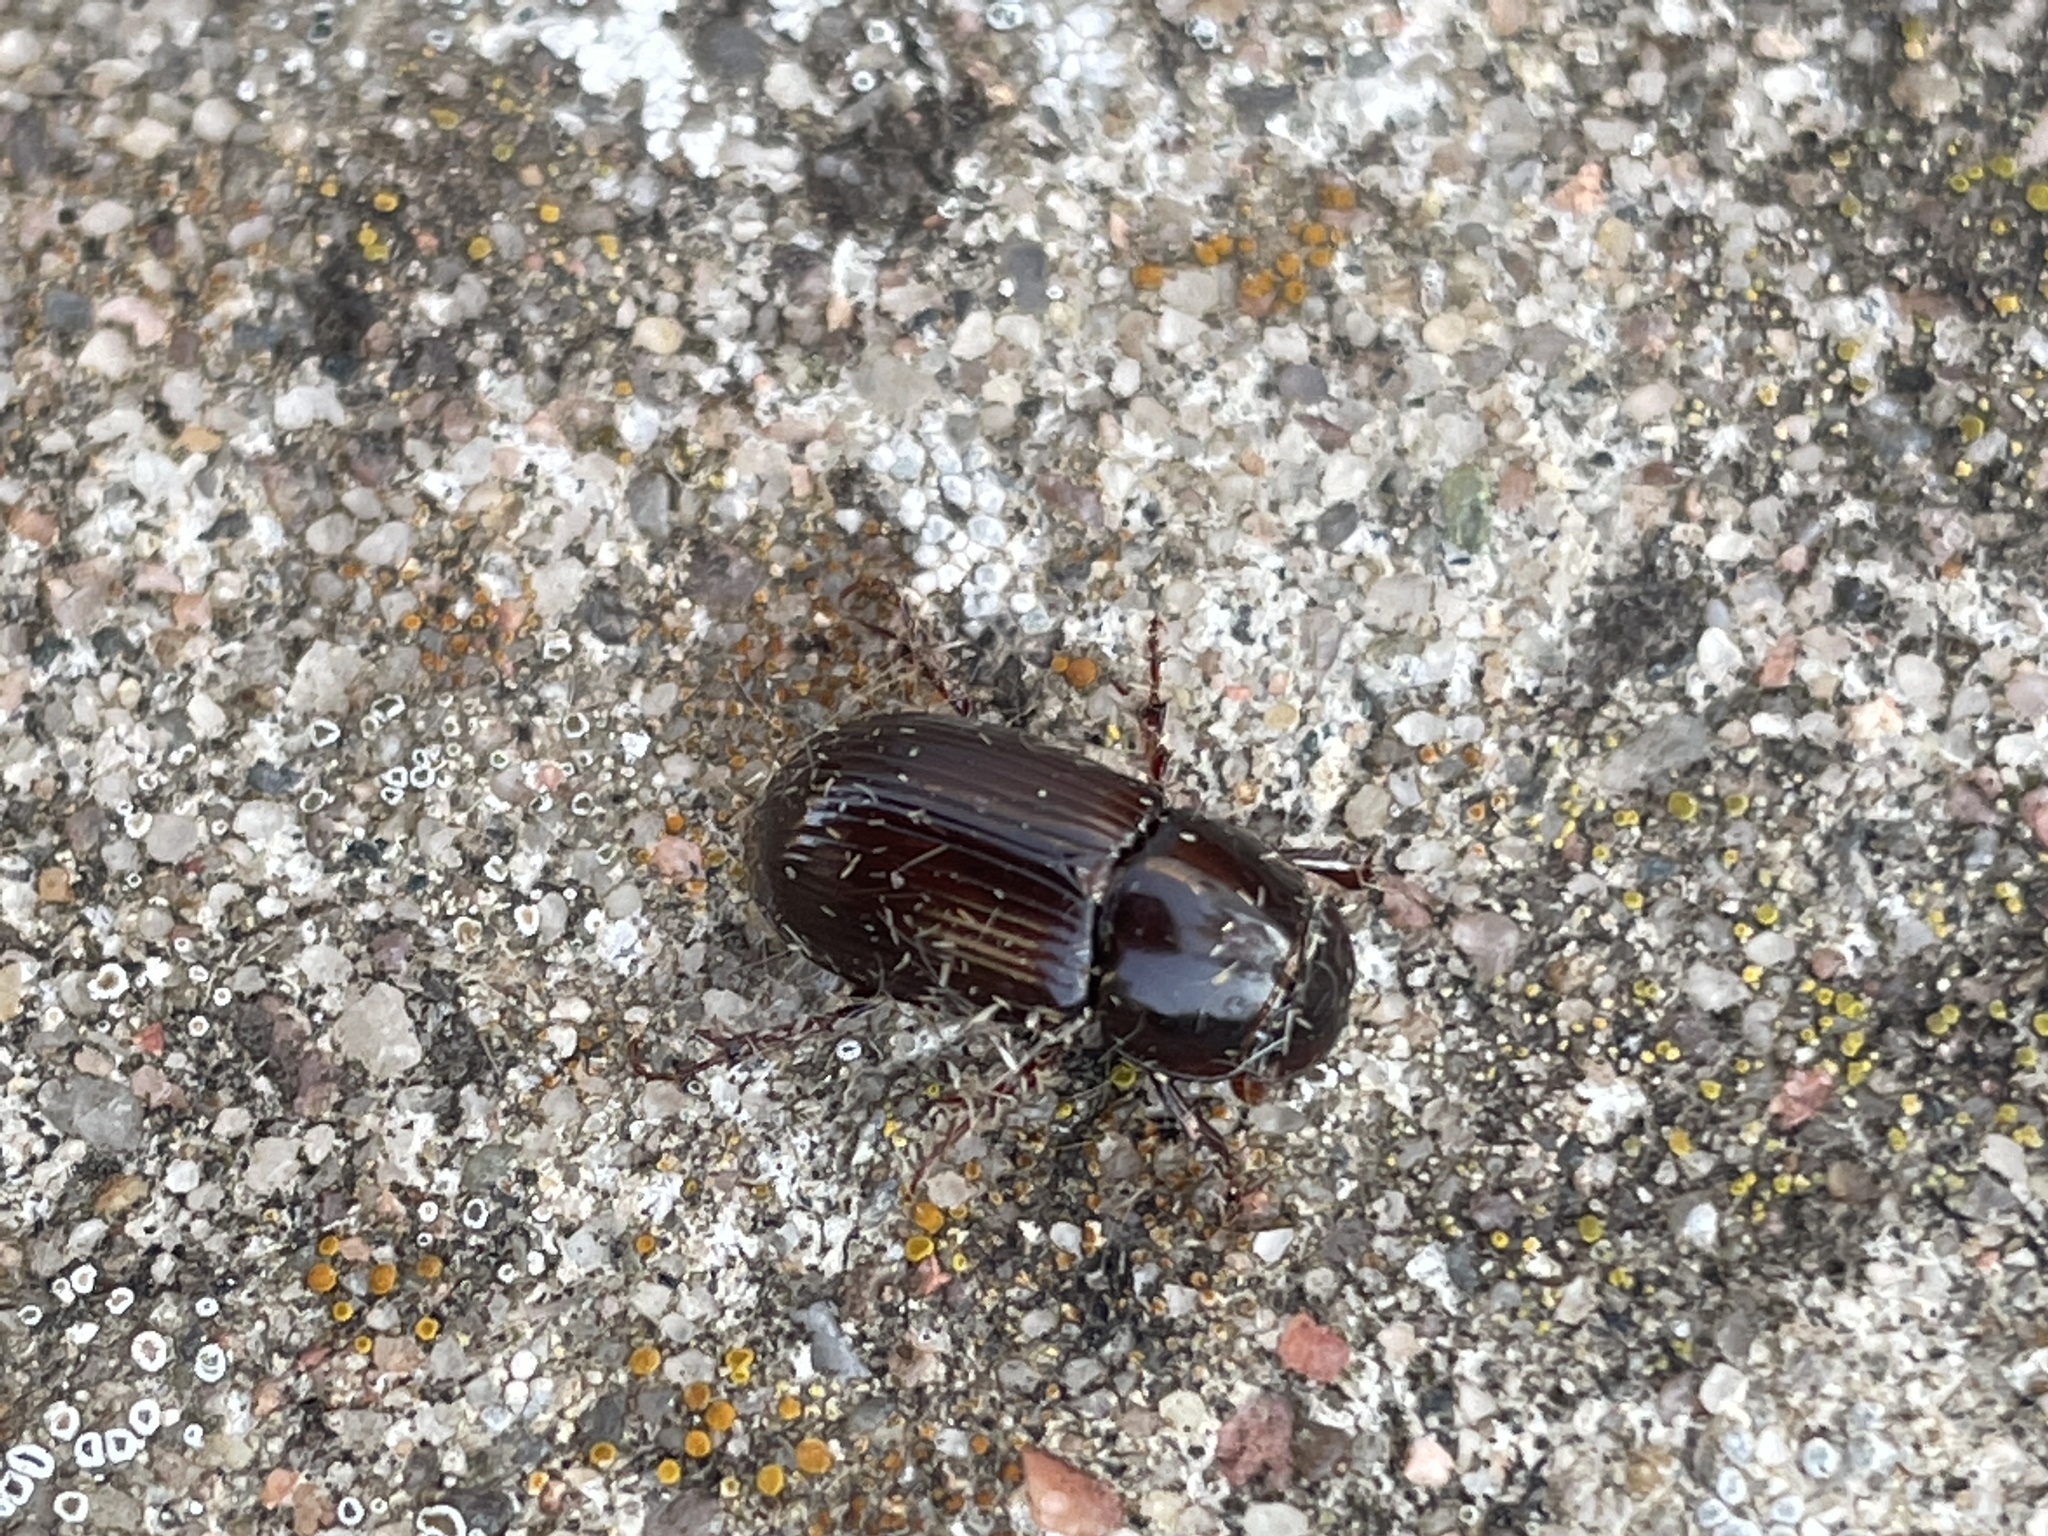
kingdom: Animalia
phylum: Arthropoda
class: Insecta
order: Coleoptera
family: Scarabaeidae
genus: Acrossus
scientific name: Acrossus rufipes
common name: Night-flying dung beetle
